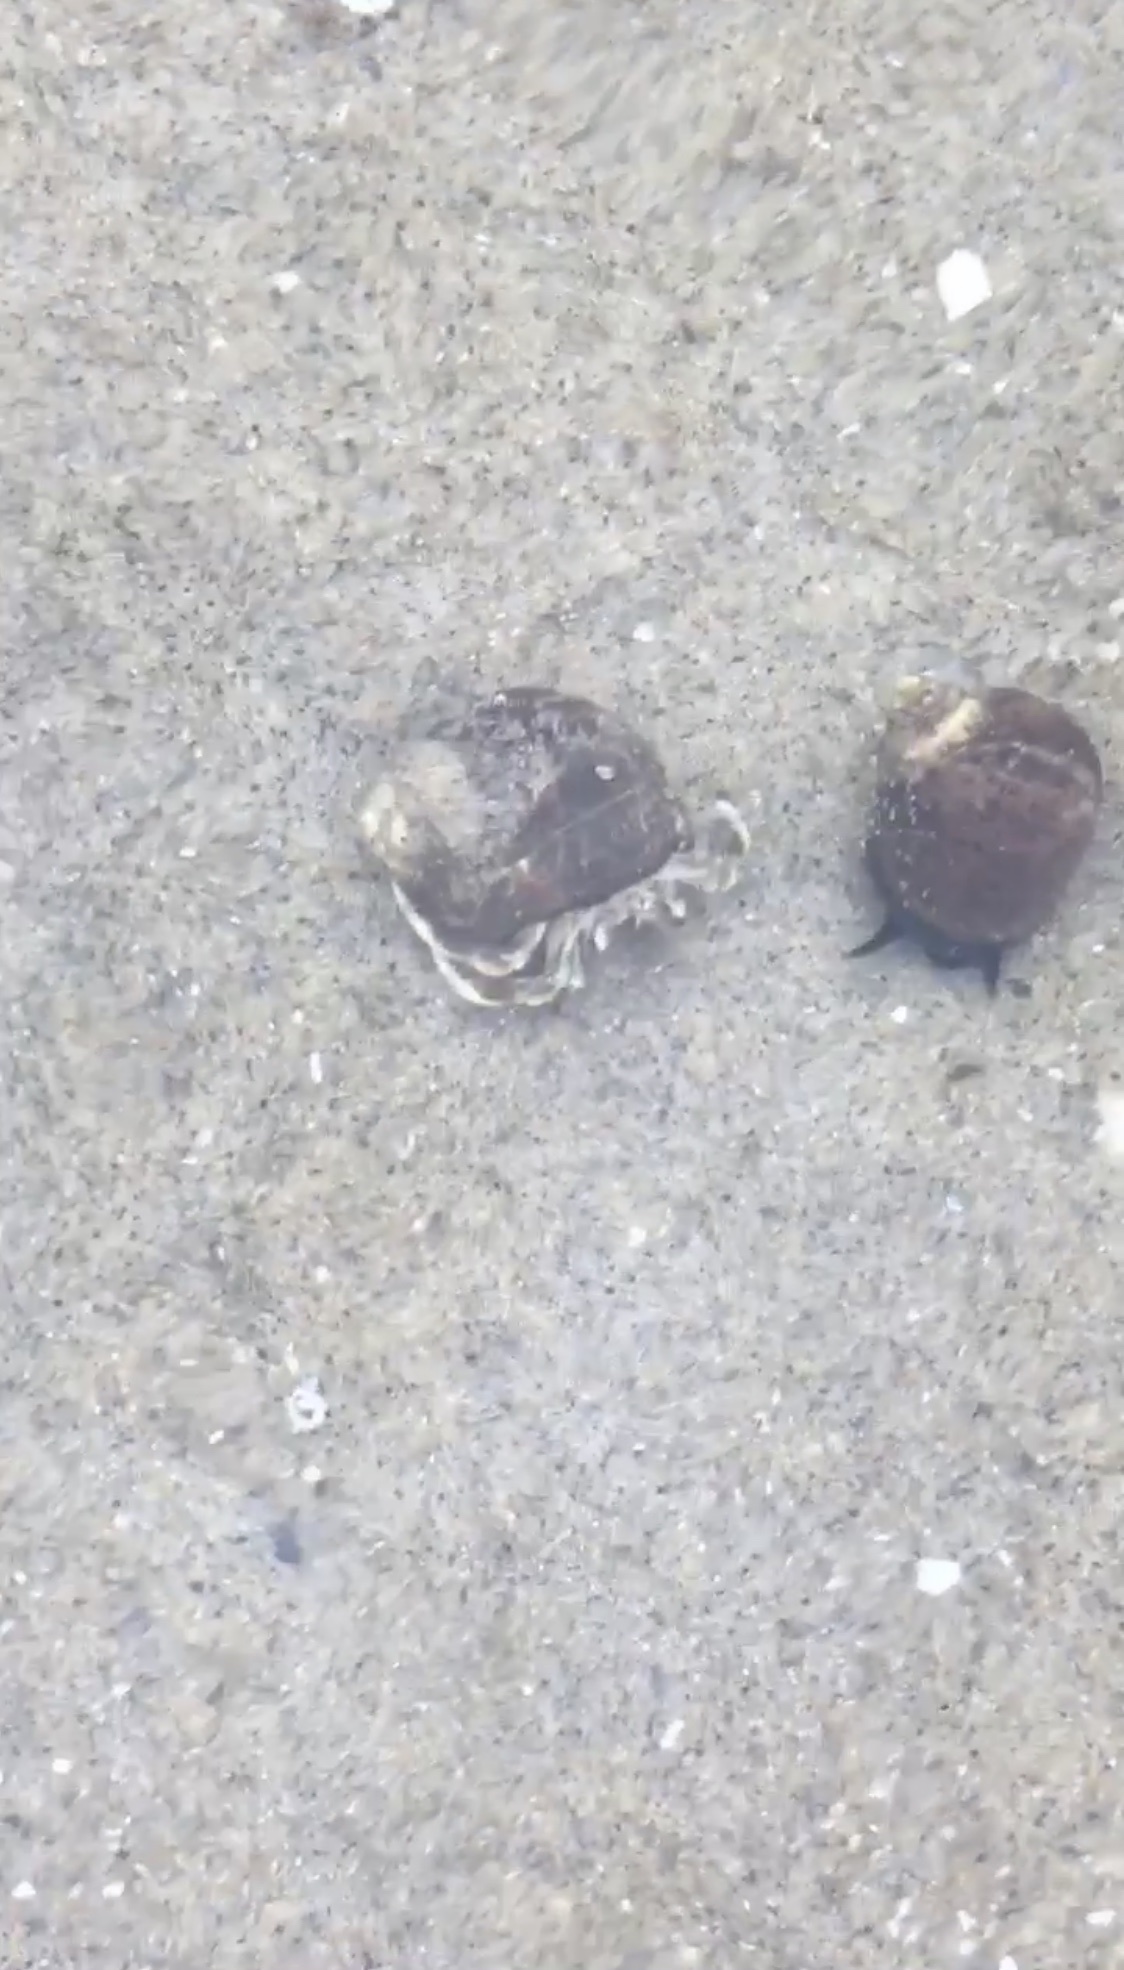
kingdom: Animalia
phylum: Arthropoda
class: Malacostraca
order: Decapoda
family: Paguridae
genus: Pagurus
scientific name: Pagurus longicarpus
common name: Long-armed hermit crab
